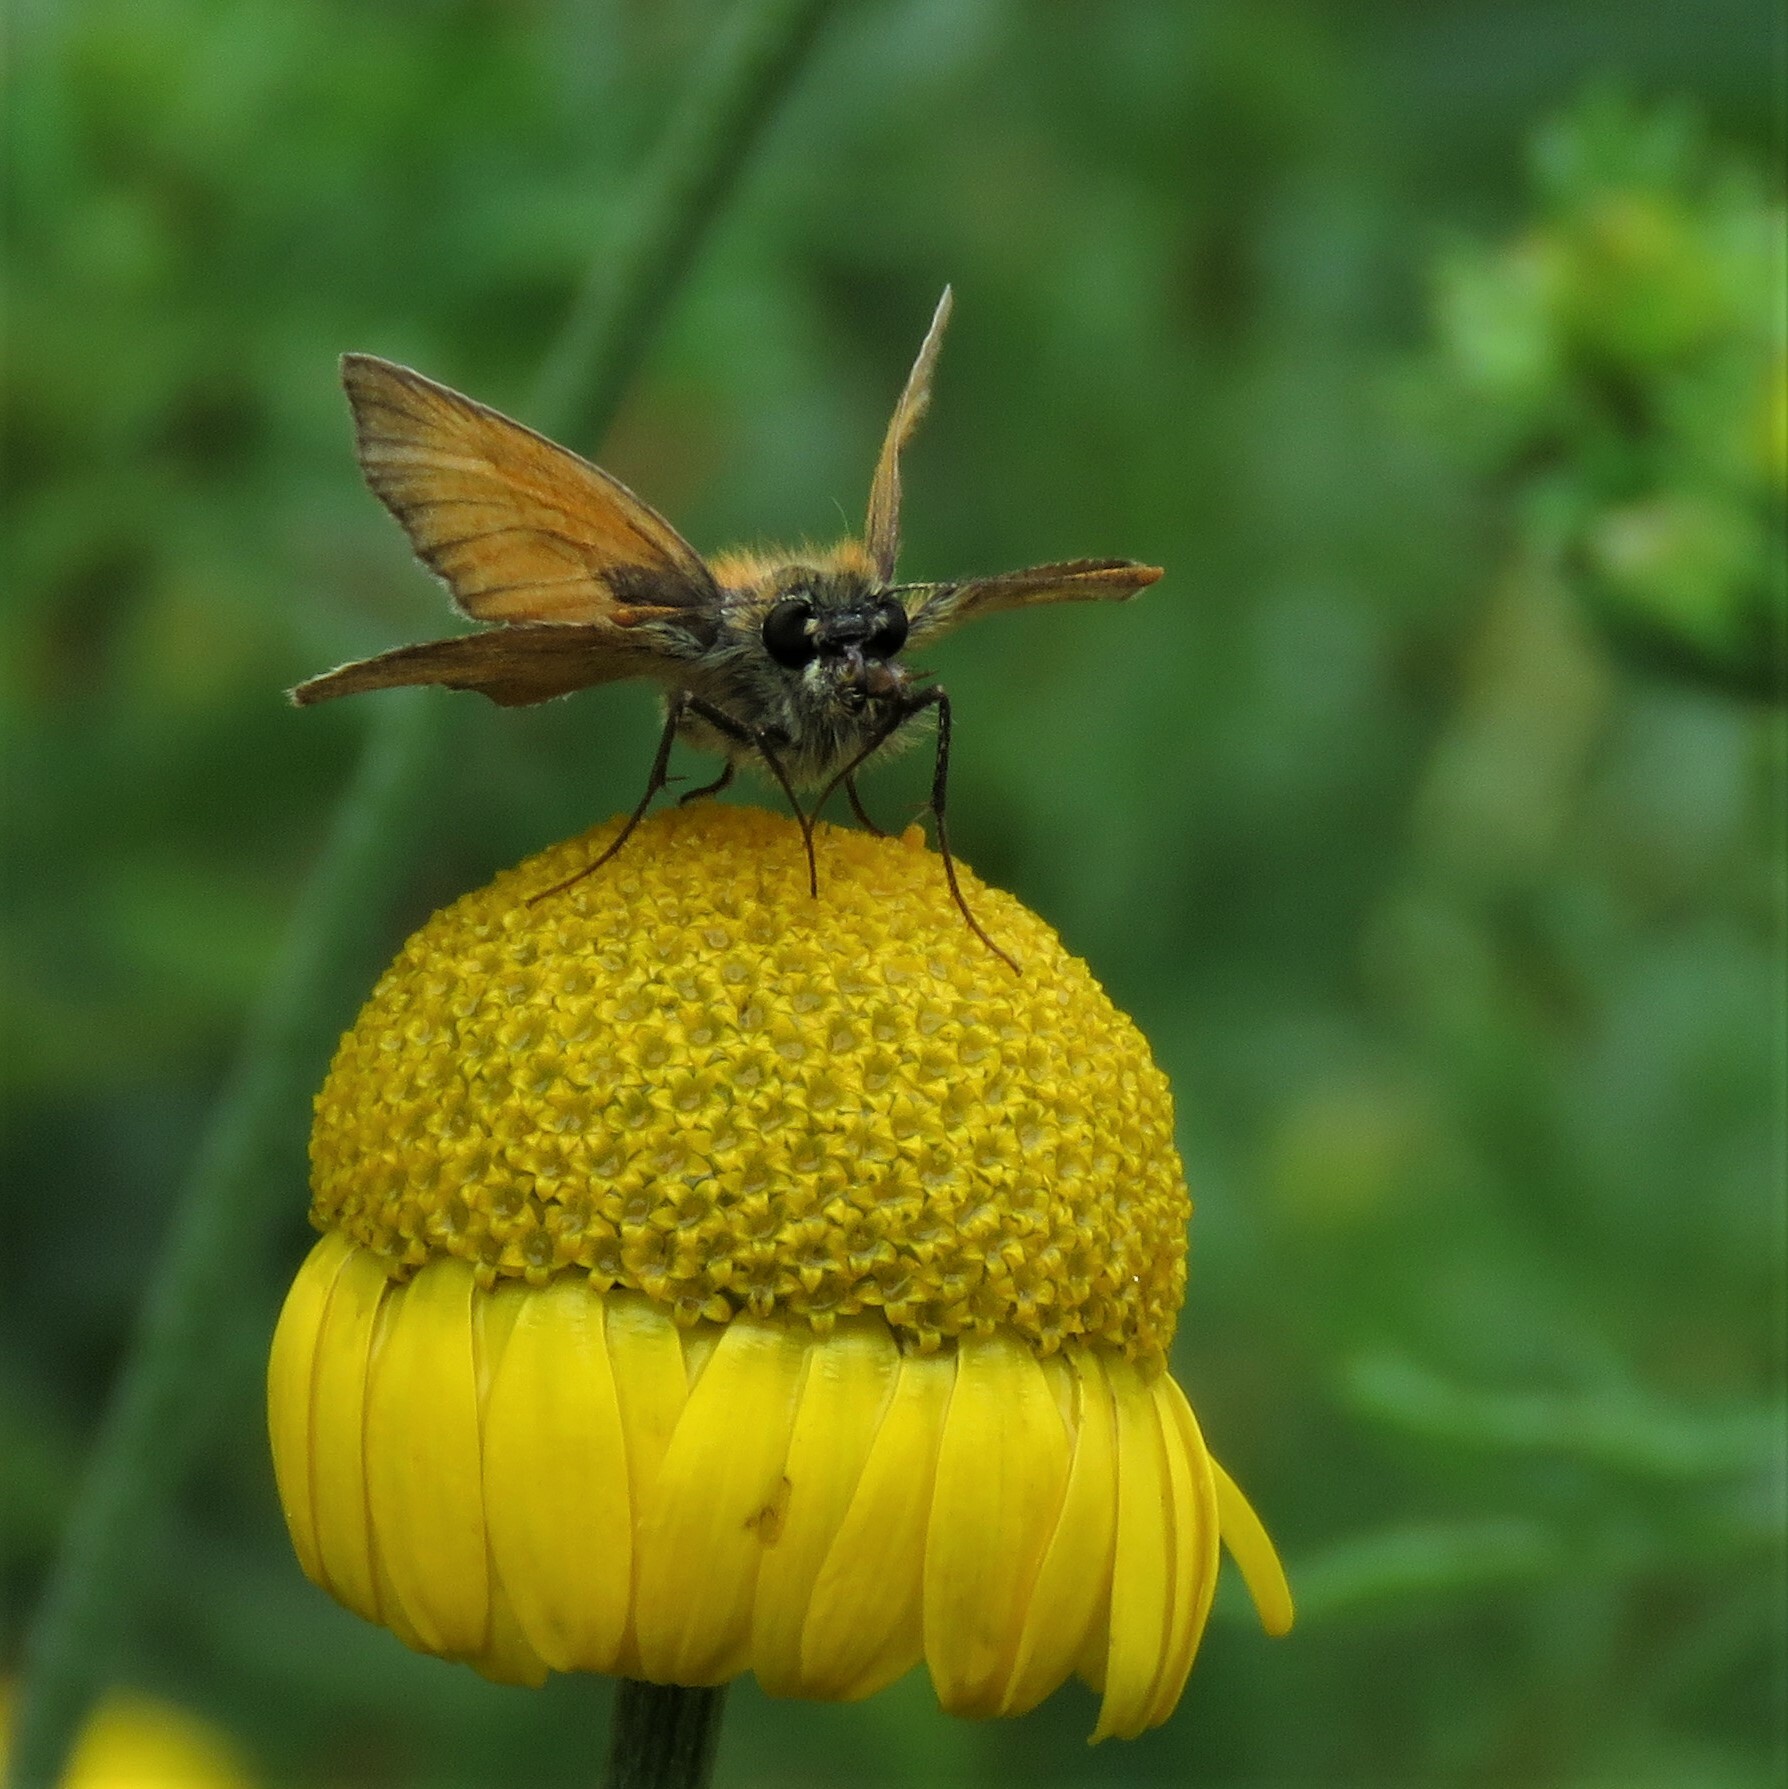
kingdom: Animalia
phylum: Arthropoda
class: Insecta
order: Lepidoptera
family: Hesperiidae
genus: Thymelicus
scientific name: Thymelicus sylvestris
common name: Small skipper
